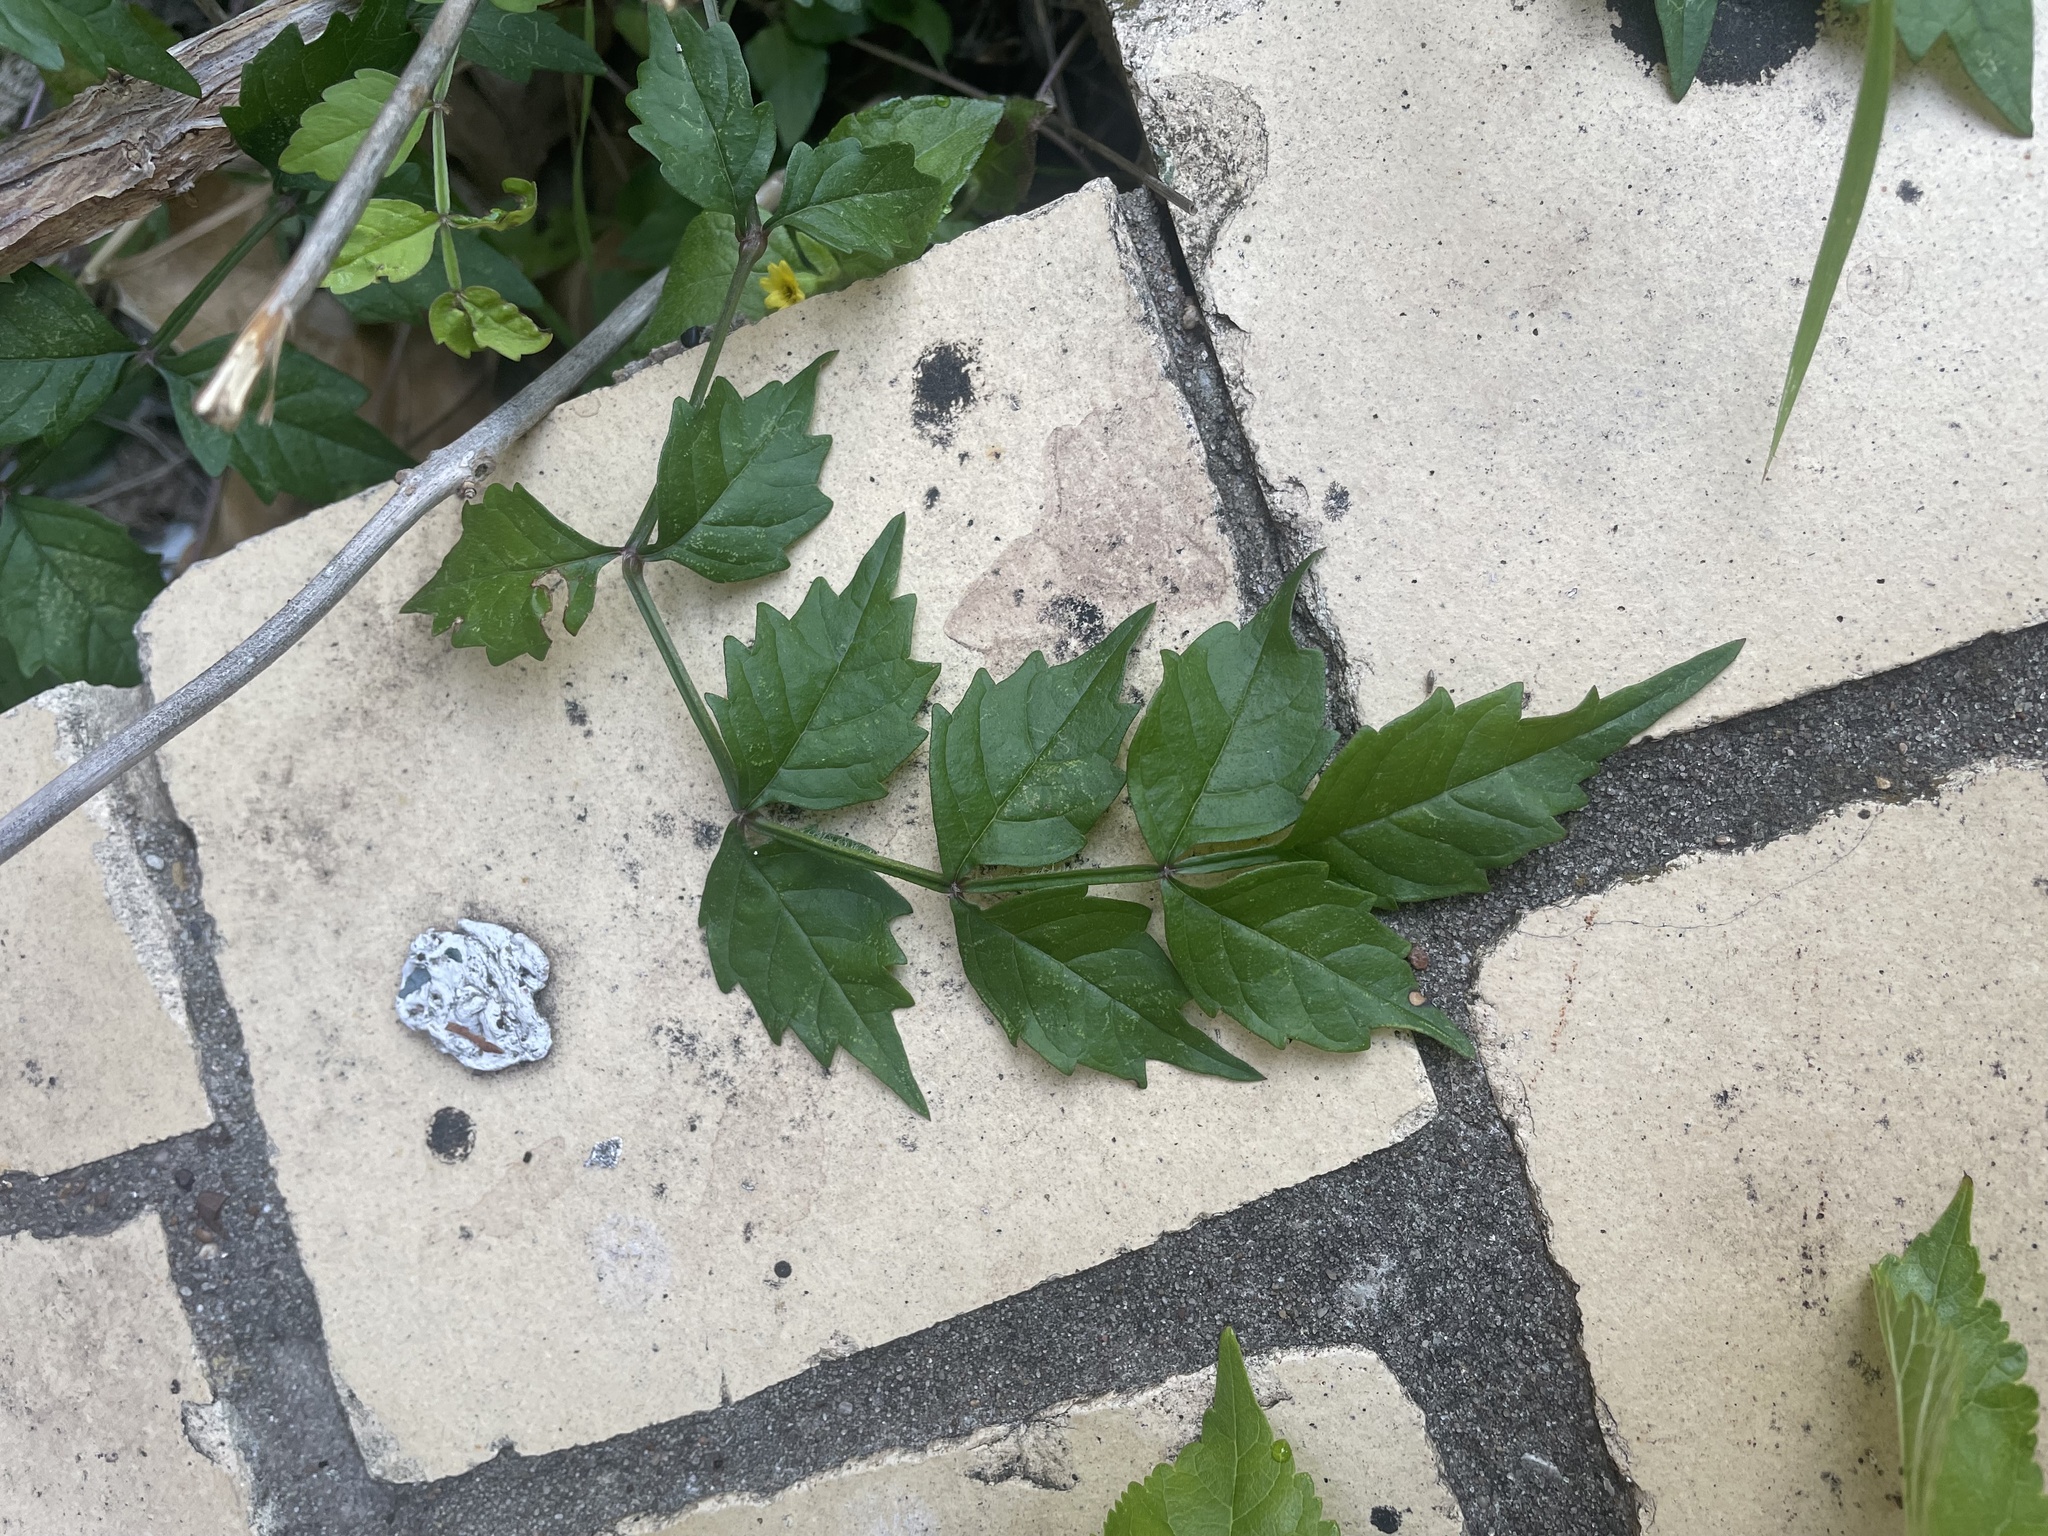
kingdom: Plantae
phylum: Tracheophyta
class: Magnoliopsida
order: Lamiales
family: Bignoniaceae
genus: Campsis
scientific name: Campsis radicans
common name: Trumpet-creeper
